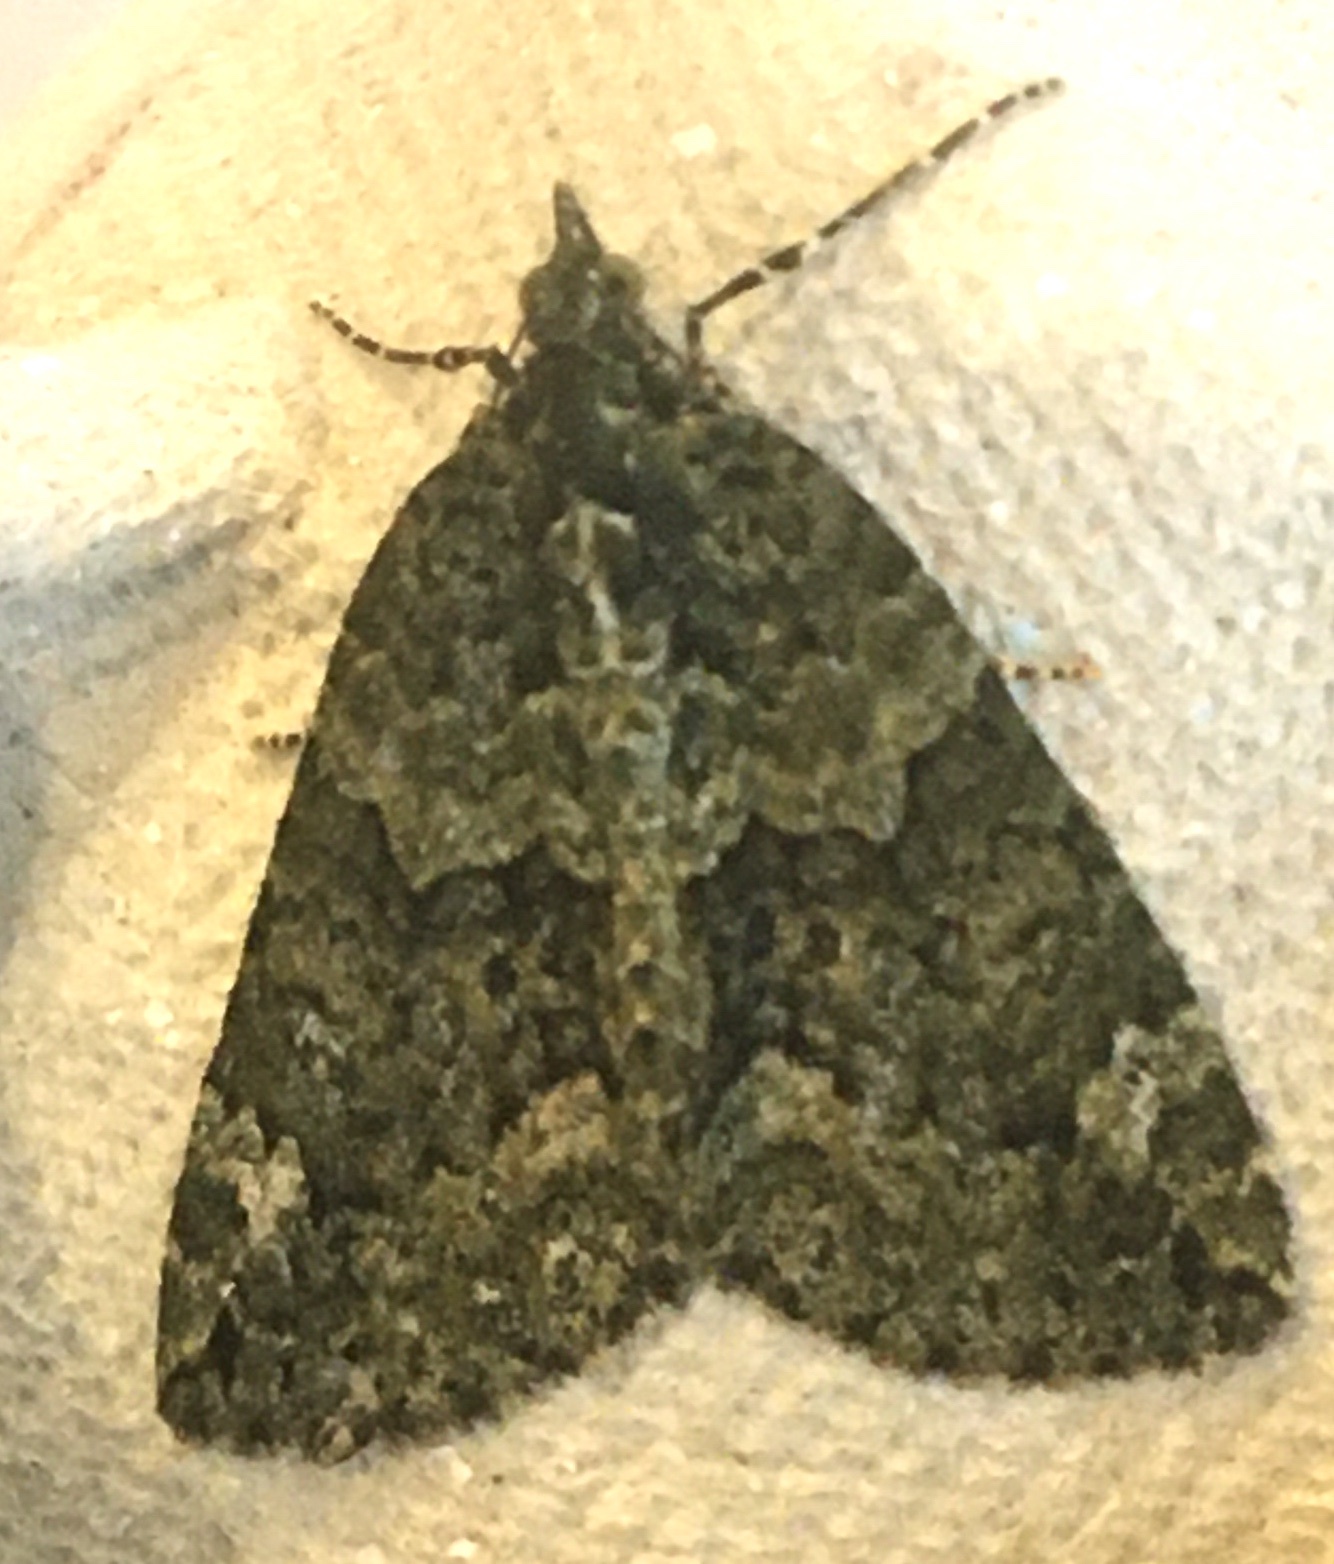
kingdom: Animalia
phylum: Arthropoda
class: Insecta
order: Lepidoptera
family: Geometridae
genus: Chloroclysta
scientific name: Chloroclysta siterata
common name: Red-green carpet
